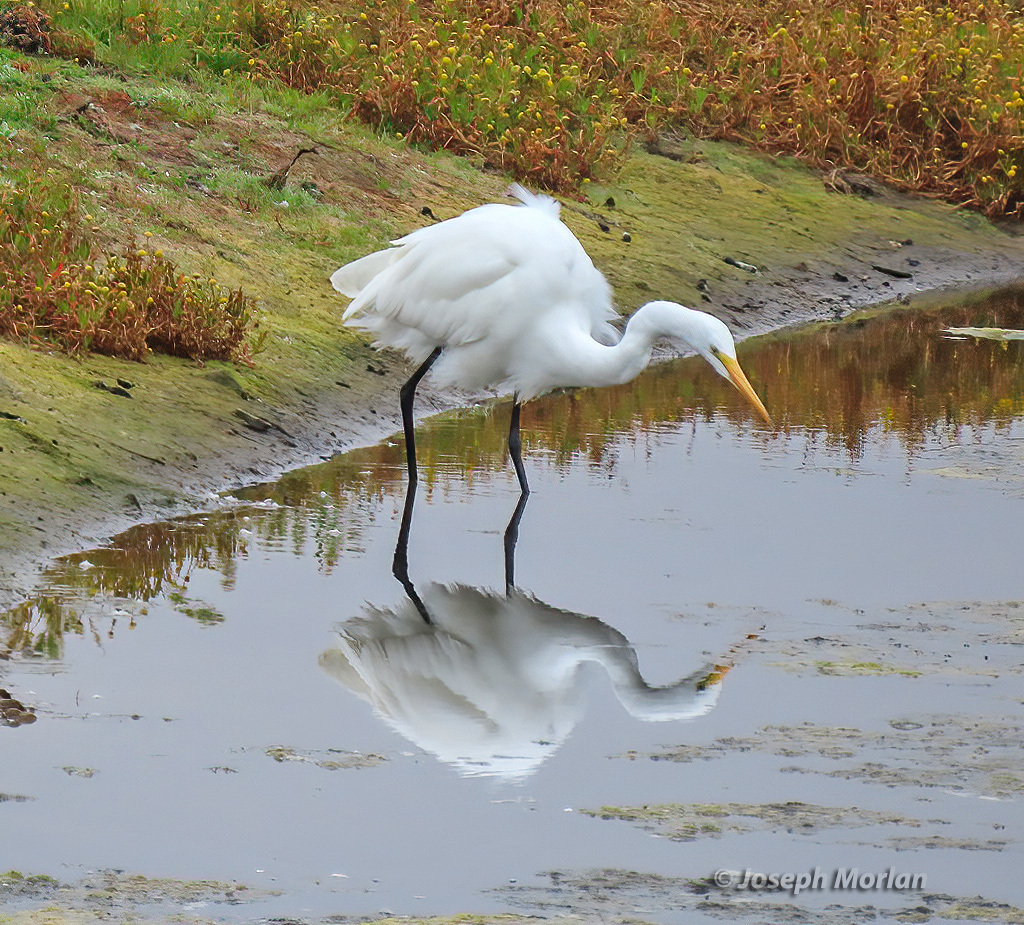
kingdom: Animalia
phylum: Chordata
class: Aves
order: Pelecaniformes
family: Ardeidae
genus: Ardea
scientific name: Ardea alba
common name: Great egret
